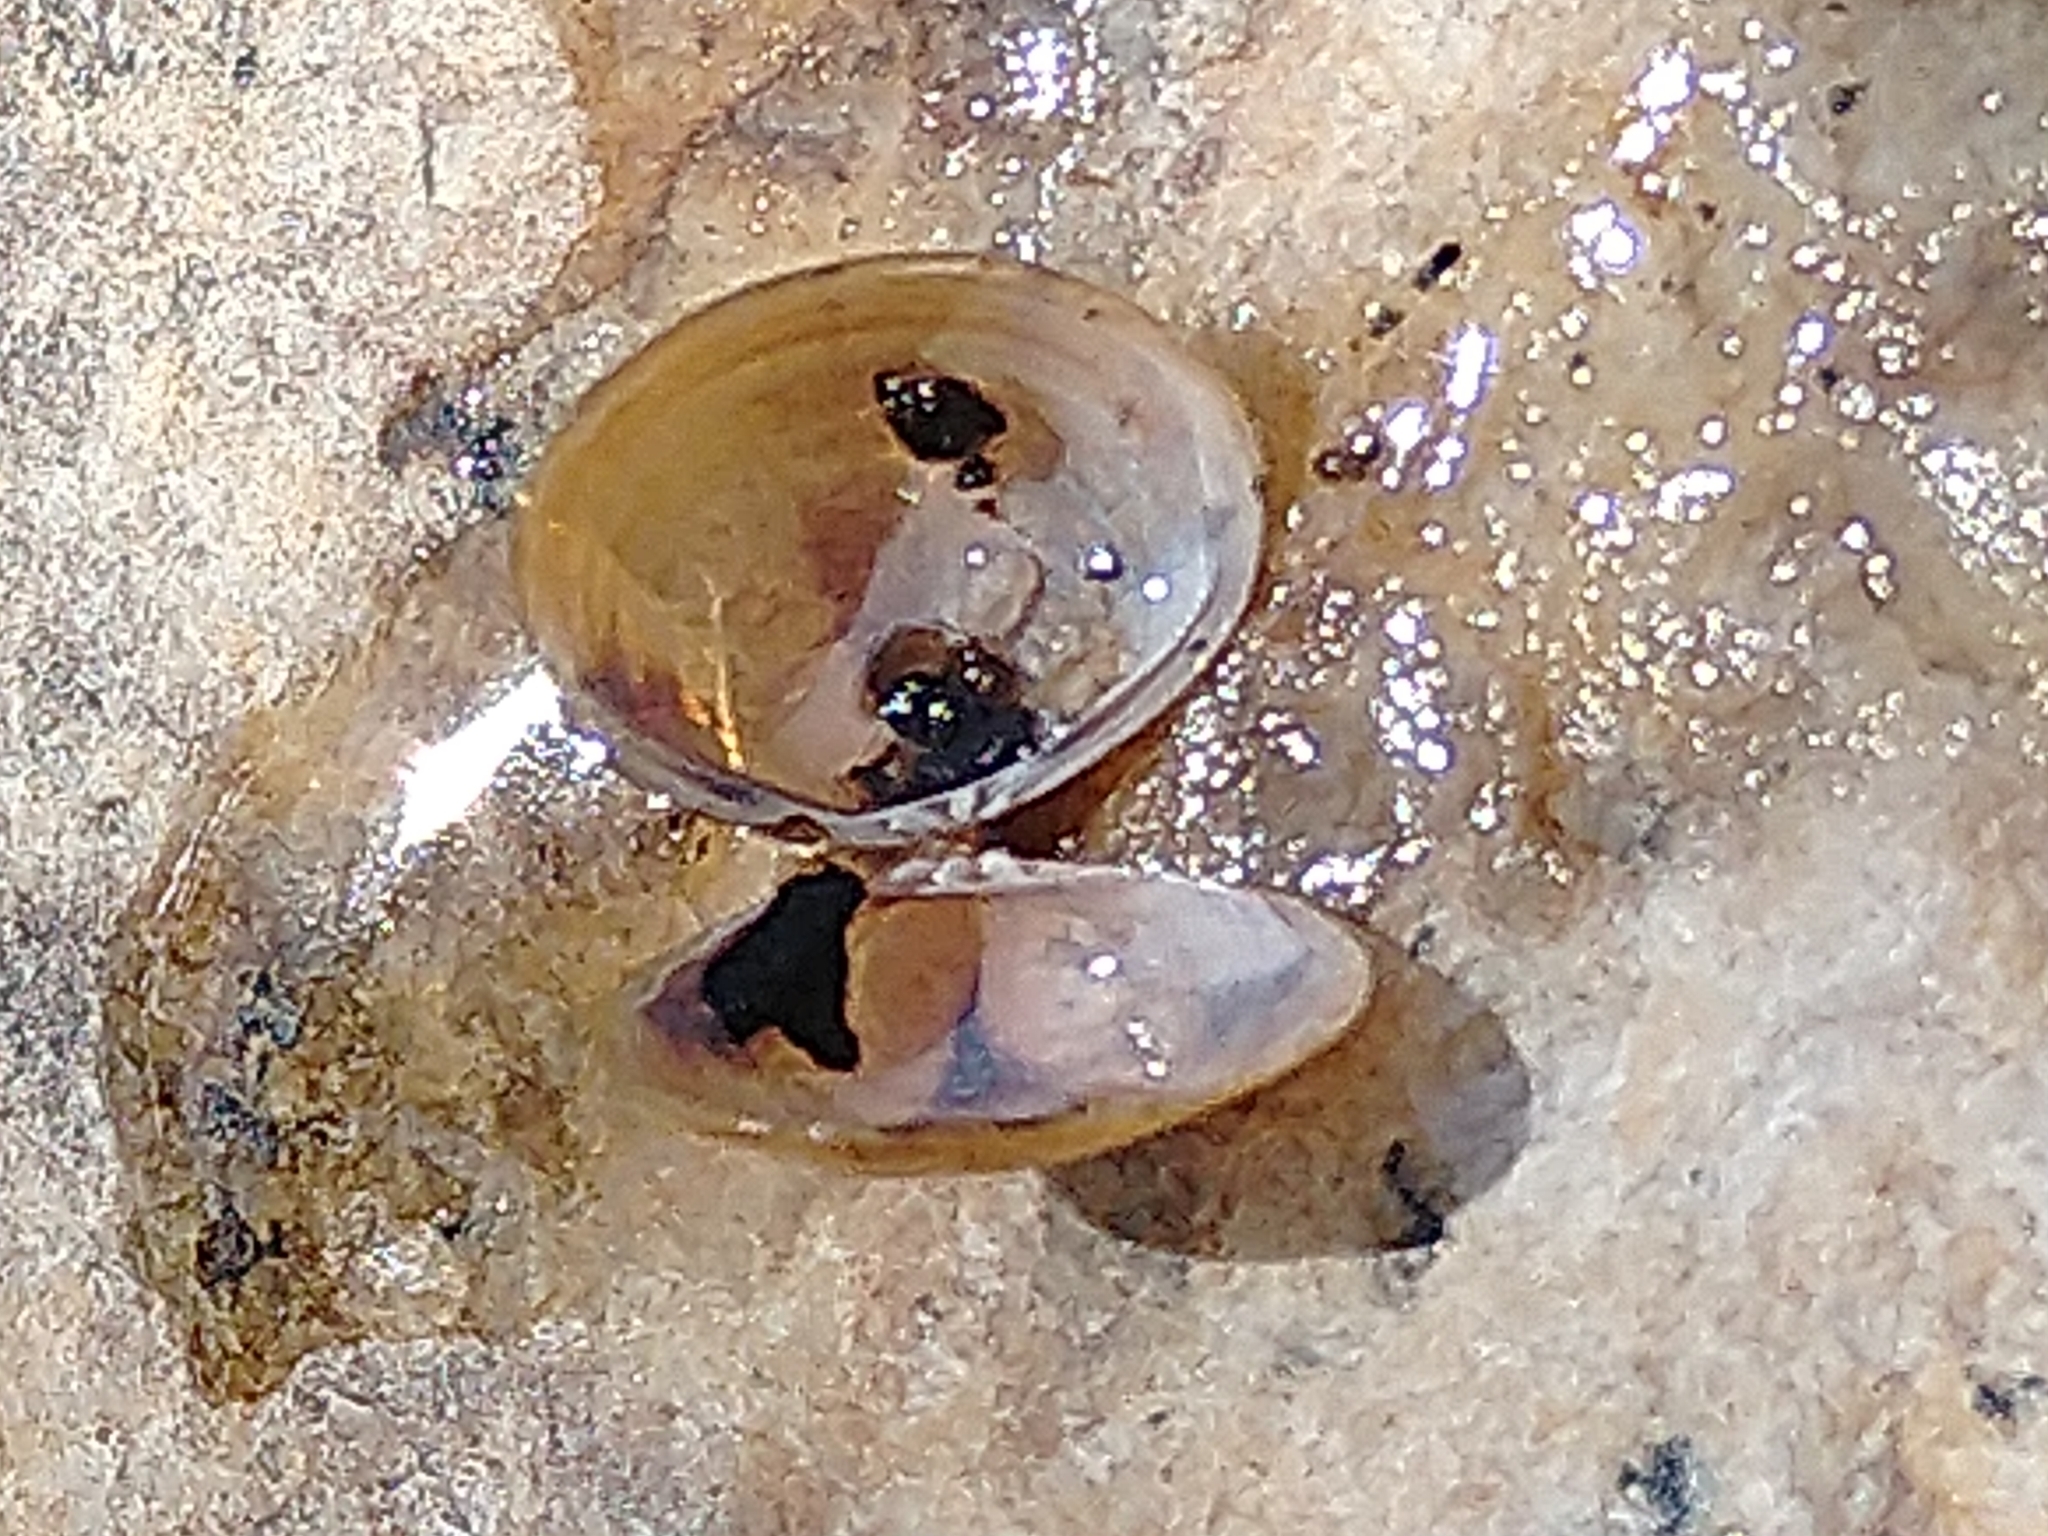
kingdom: Animalia
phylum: Mollusca
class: Bivalvia
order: Venerida
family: Cyrenidae
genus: Corbicula
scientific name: Corbicula largillierti
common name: Purple asian clam
